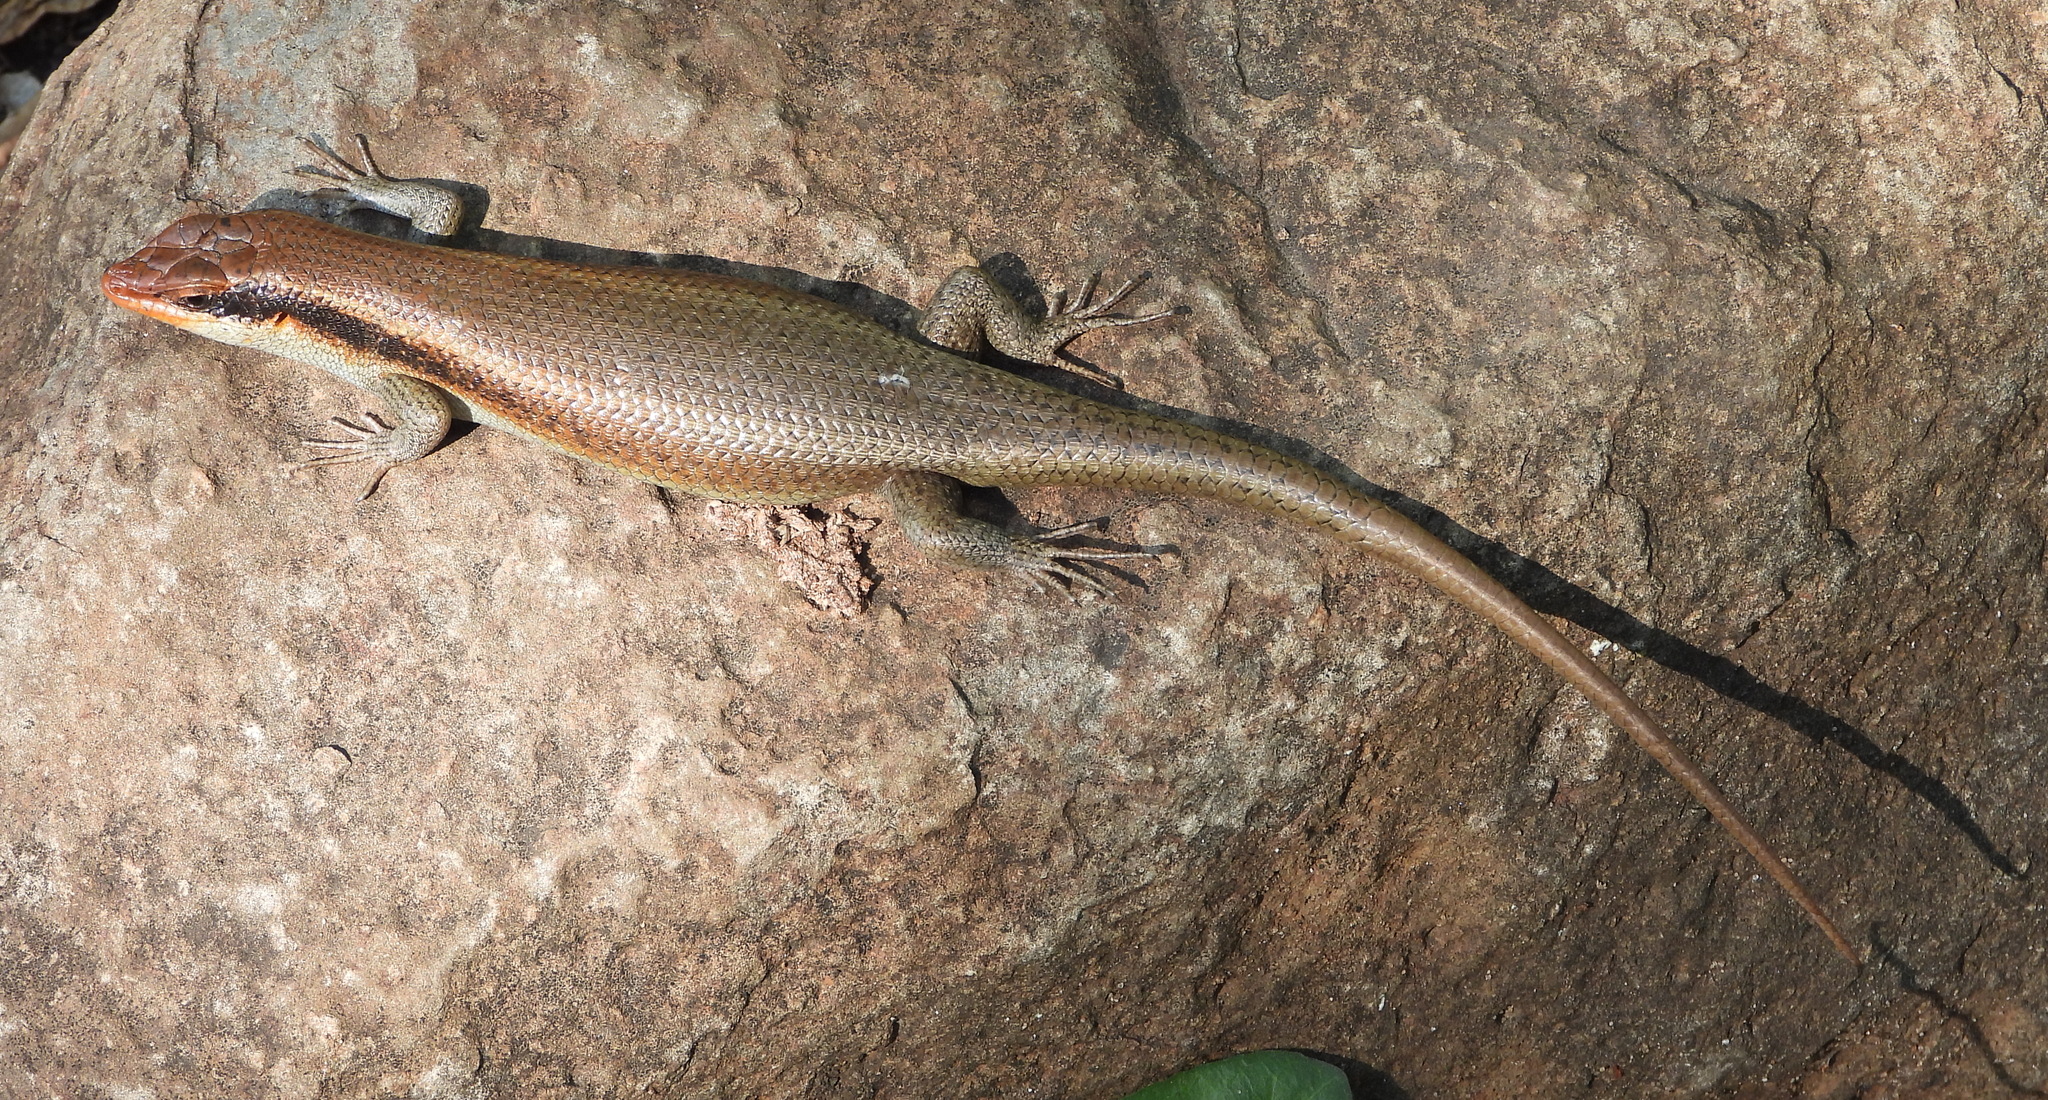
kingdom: Animalia
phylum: Chordata
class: Squamata
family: Scincidae
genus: Trachylepis
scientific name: Trachylepis wahlbergii
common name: Wahlberg’s striped skink
